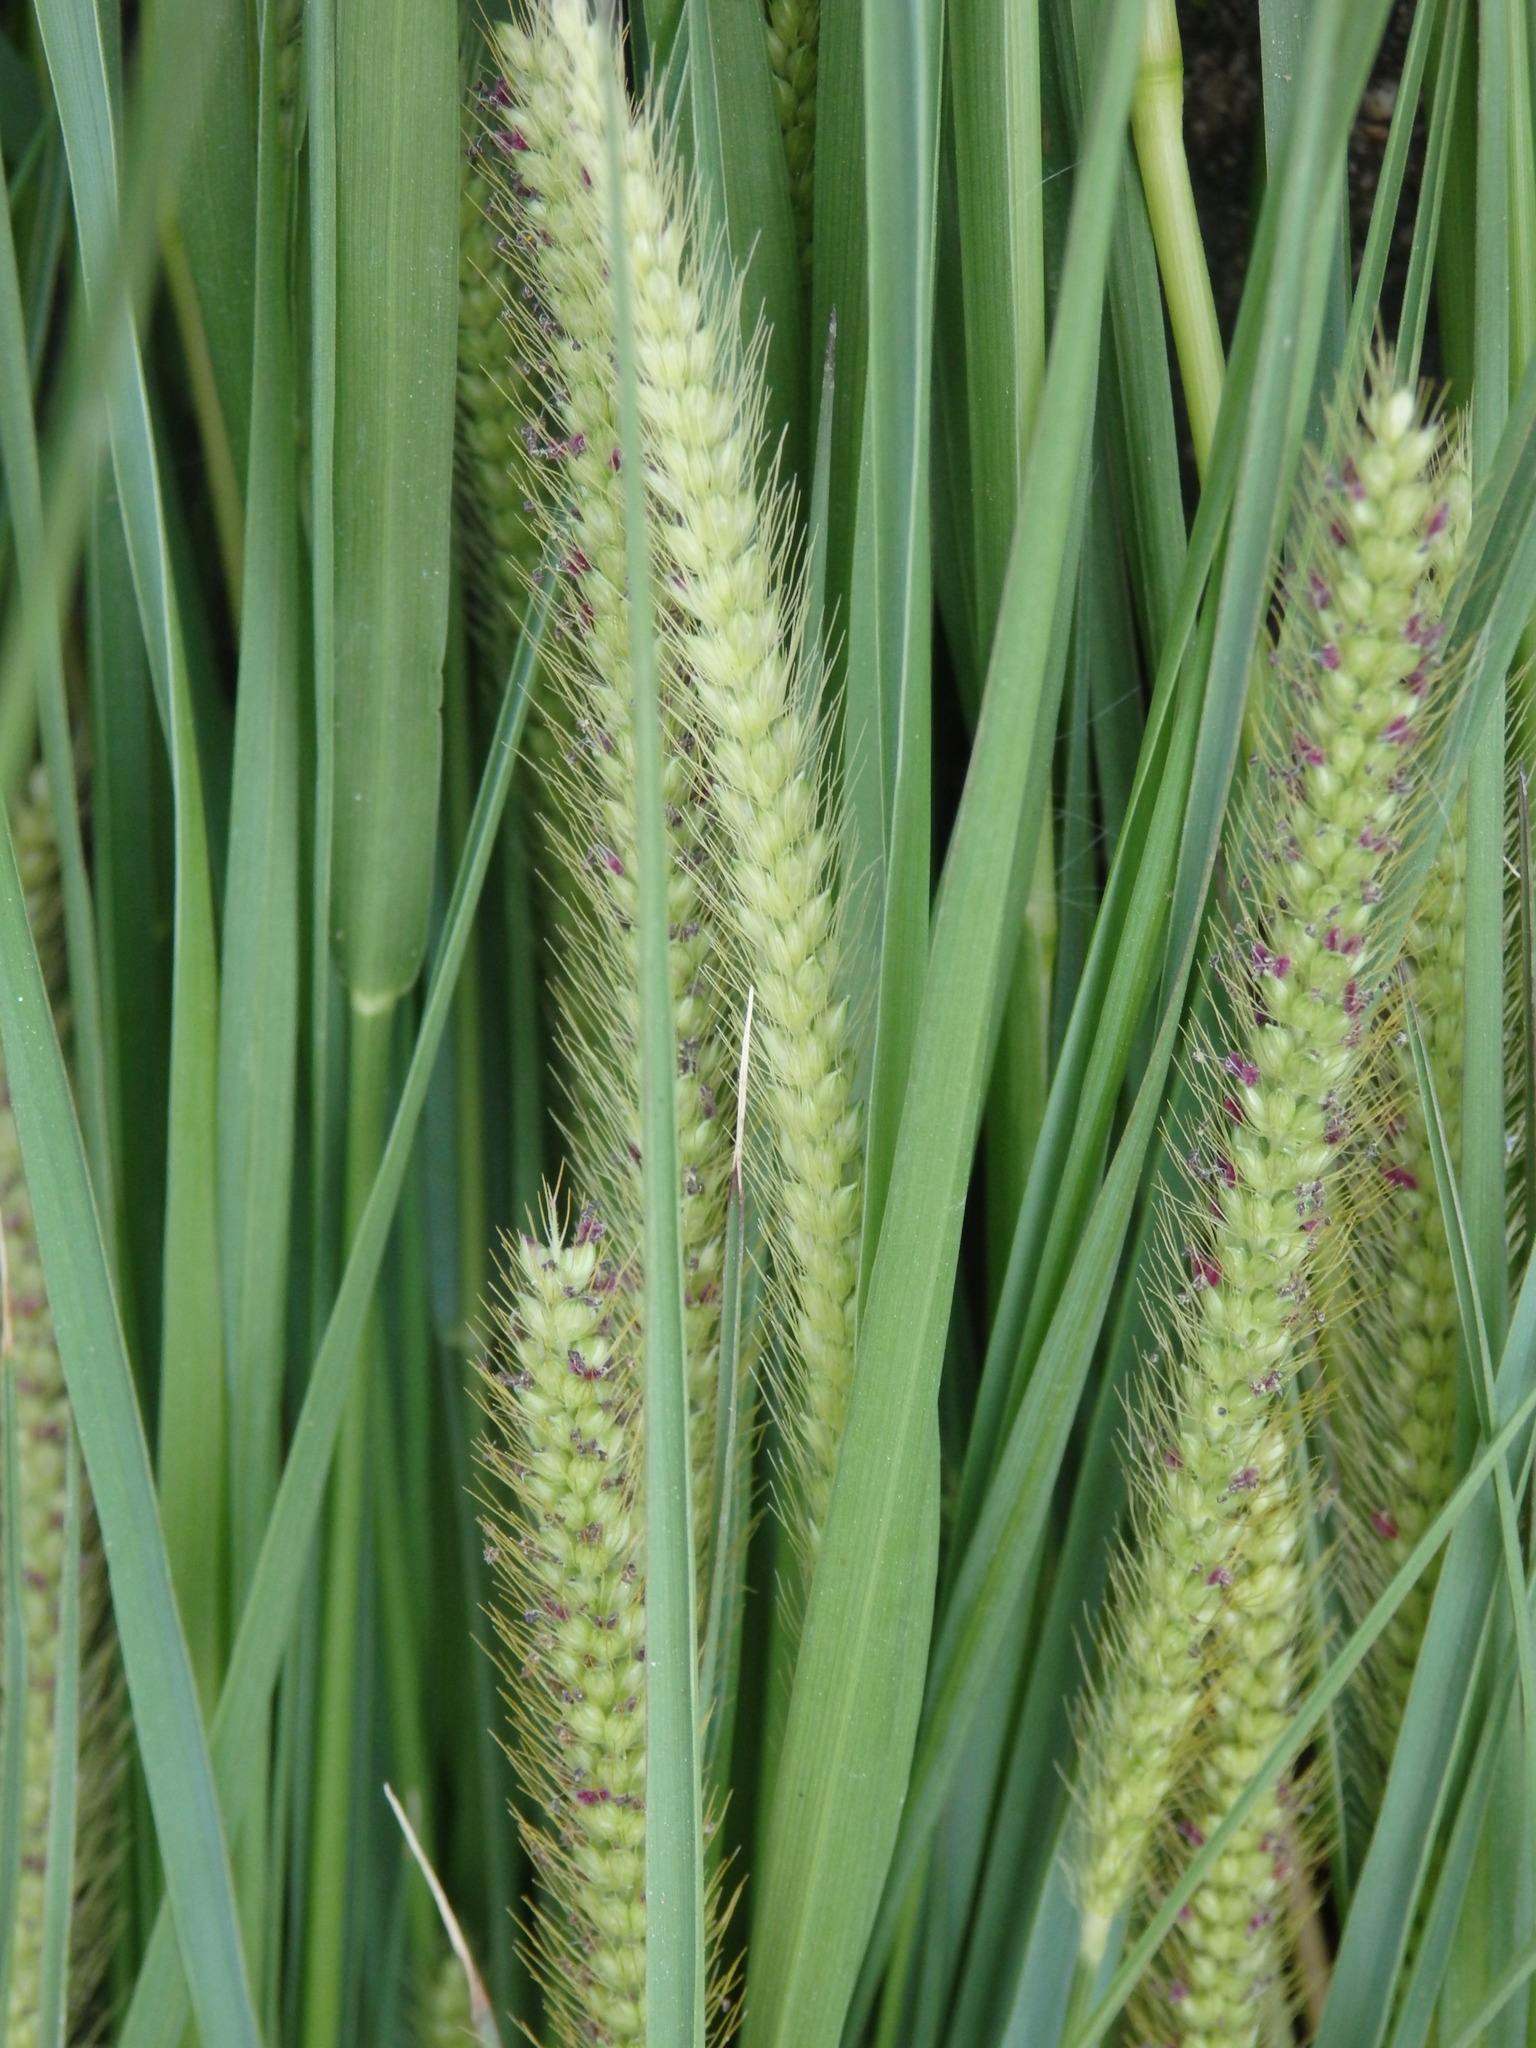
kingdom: Plantae
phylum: Tracheophyta
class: Liliopsida
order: Poales
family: Poaceae
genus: Setaria
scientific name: Setaria parviflora
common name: Knotroot bristle-grass
